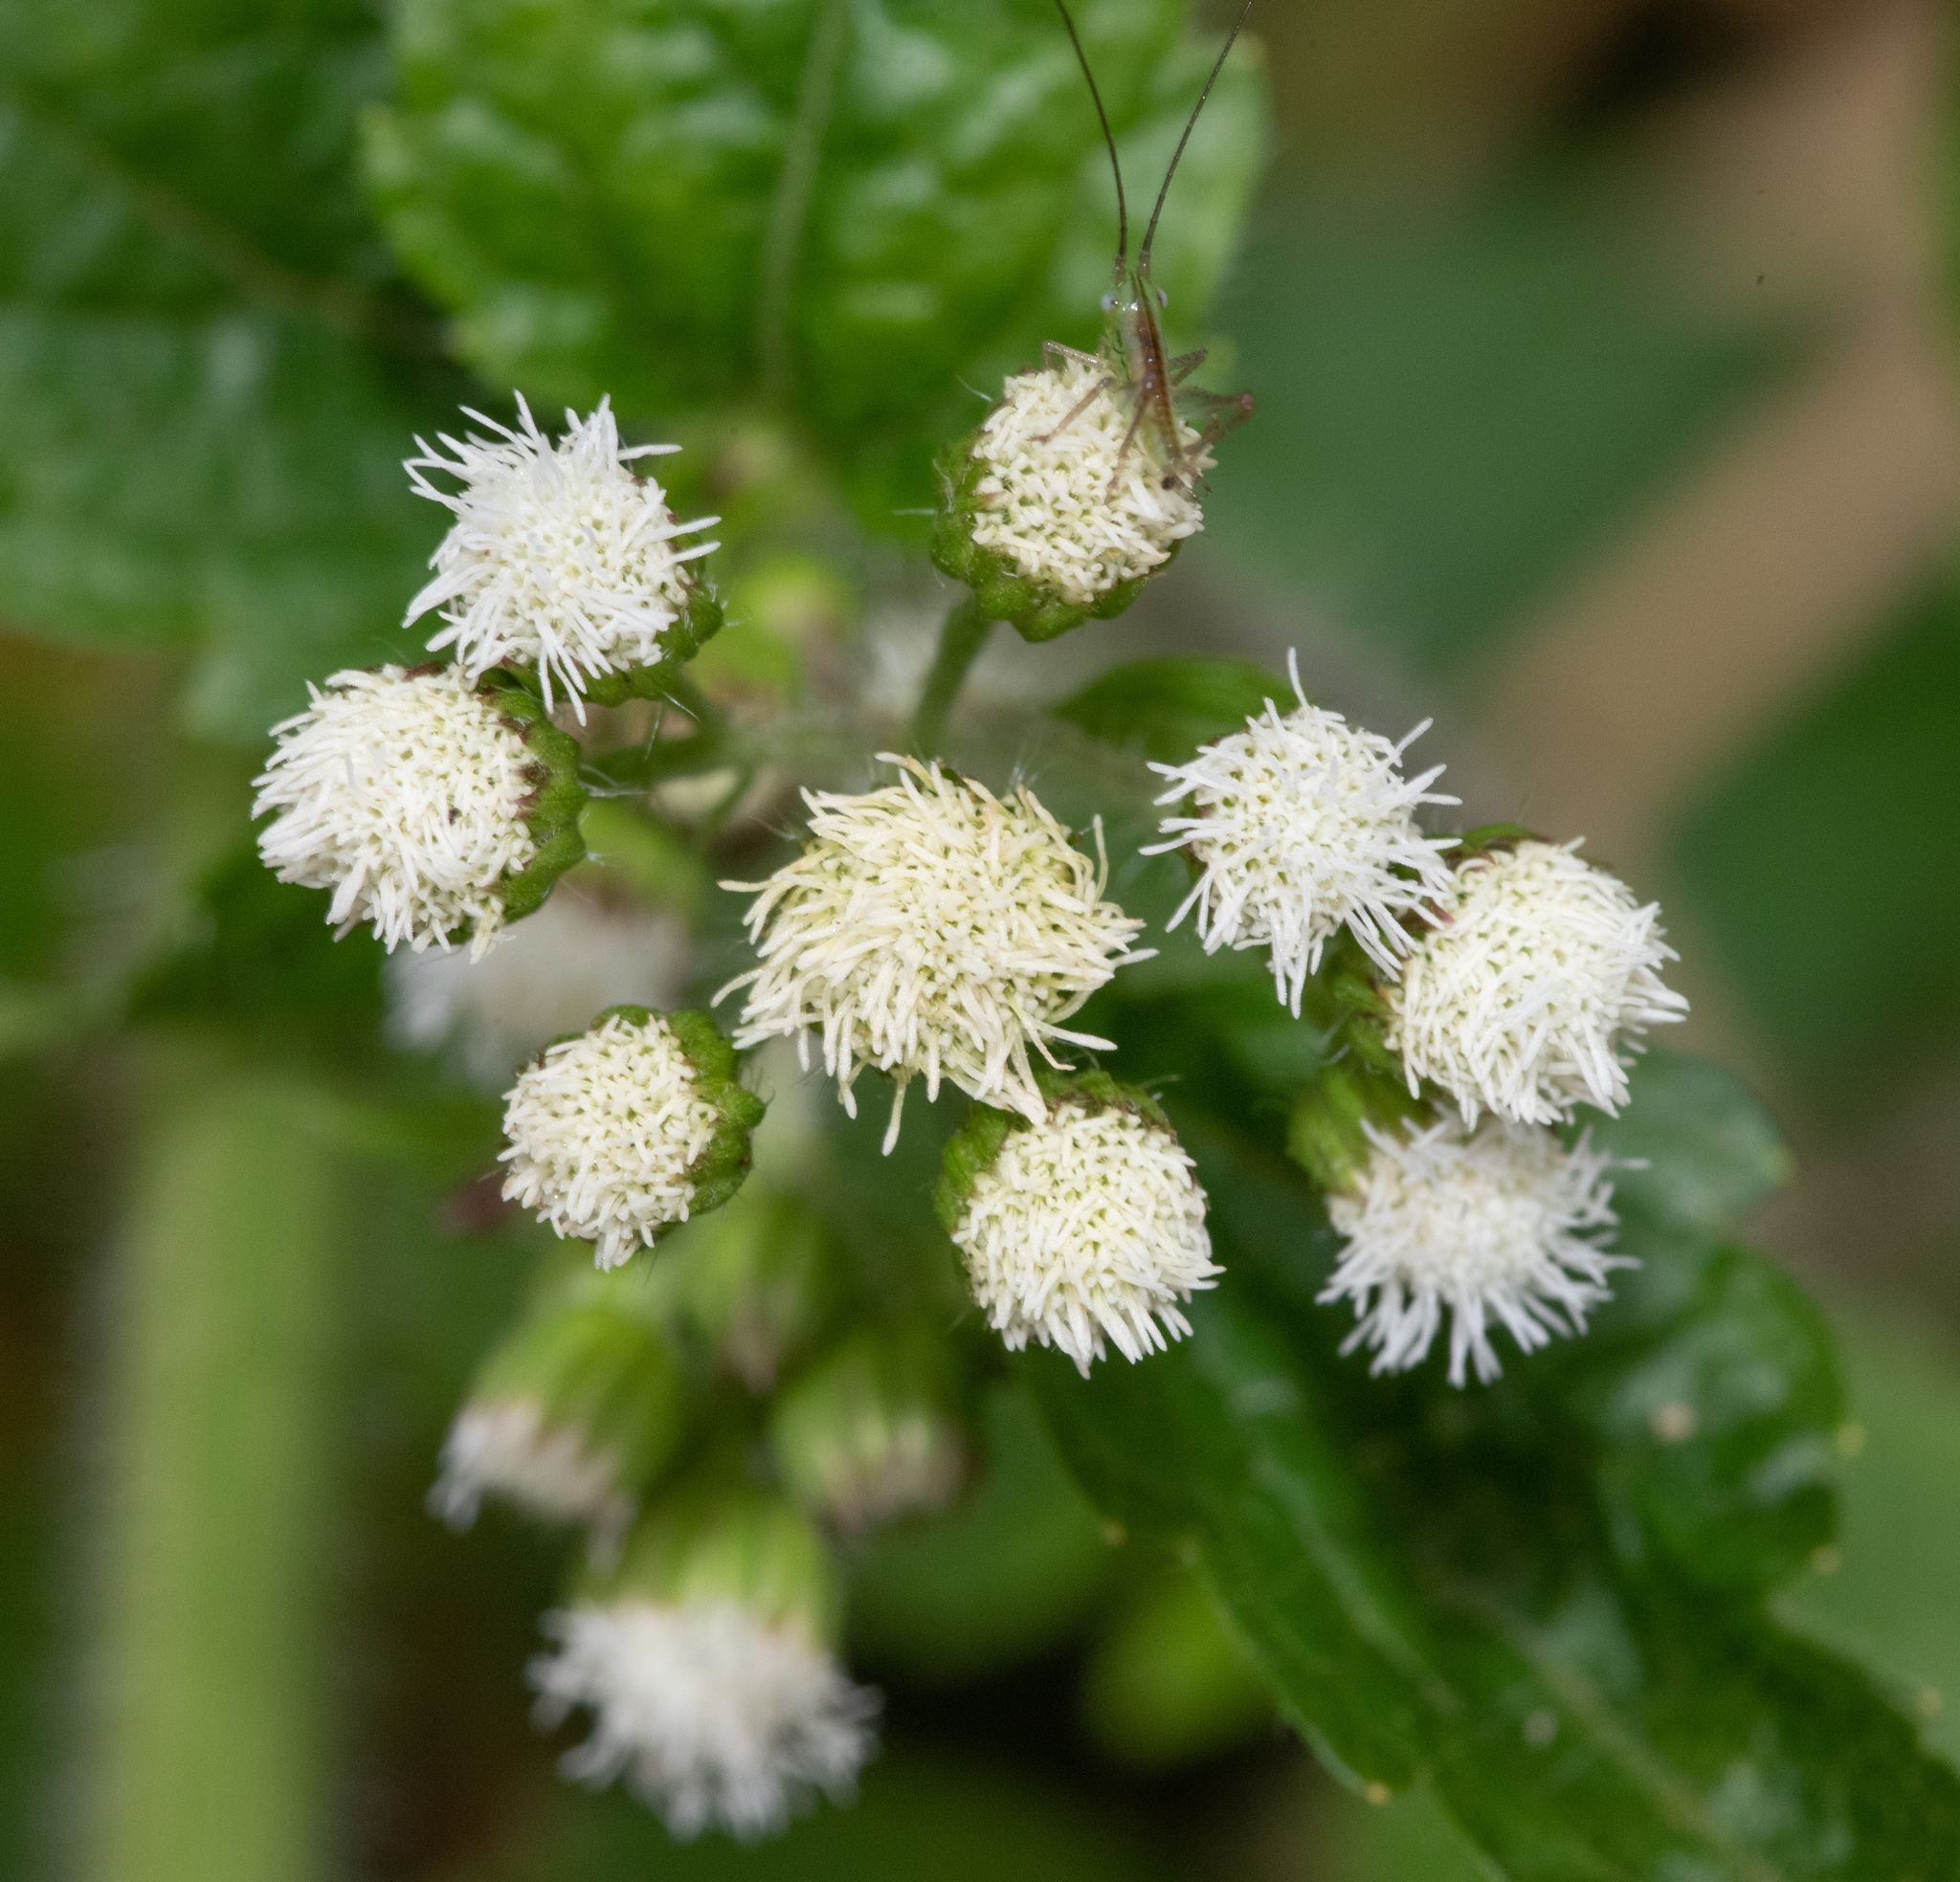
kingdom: Plantae
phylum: Tracheophyta
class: Magnoliopsida
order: Asterales
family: Asteraceae
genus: Ageratum
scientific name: Ageratum conyzoides
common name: Tropical whiteweed
